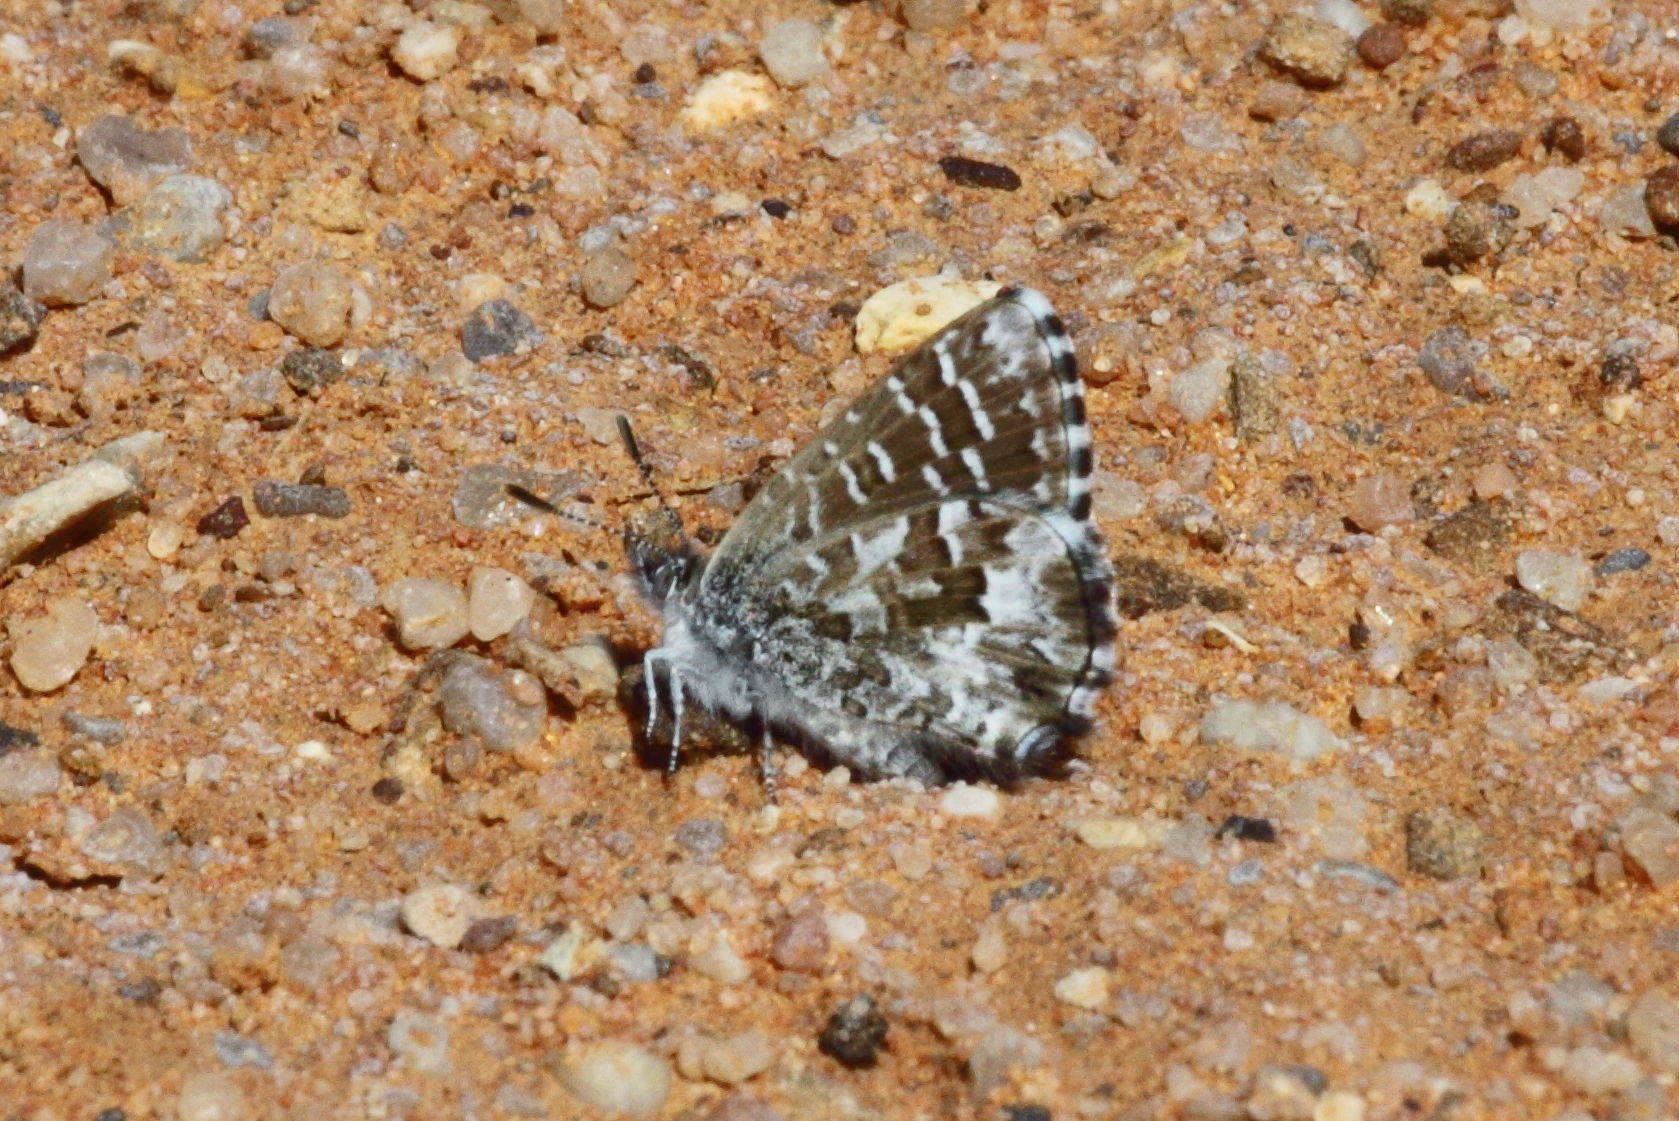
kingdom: Animalia
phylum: Arthropoda
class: Insecta
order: Lepidoptera
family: Lycaenidae
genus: Theclinesthes
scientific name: Theclinesthes serpentata
